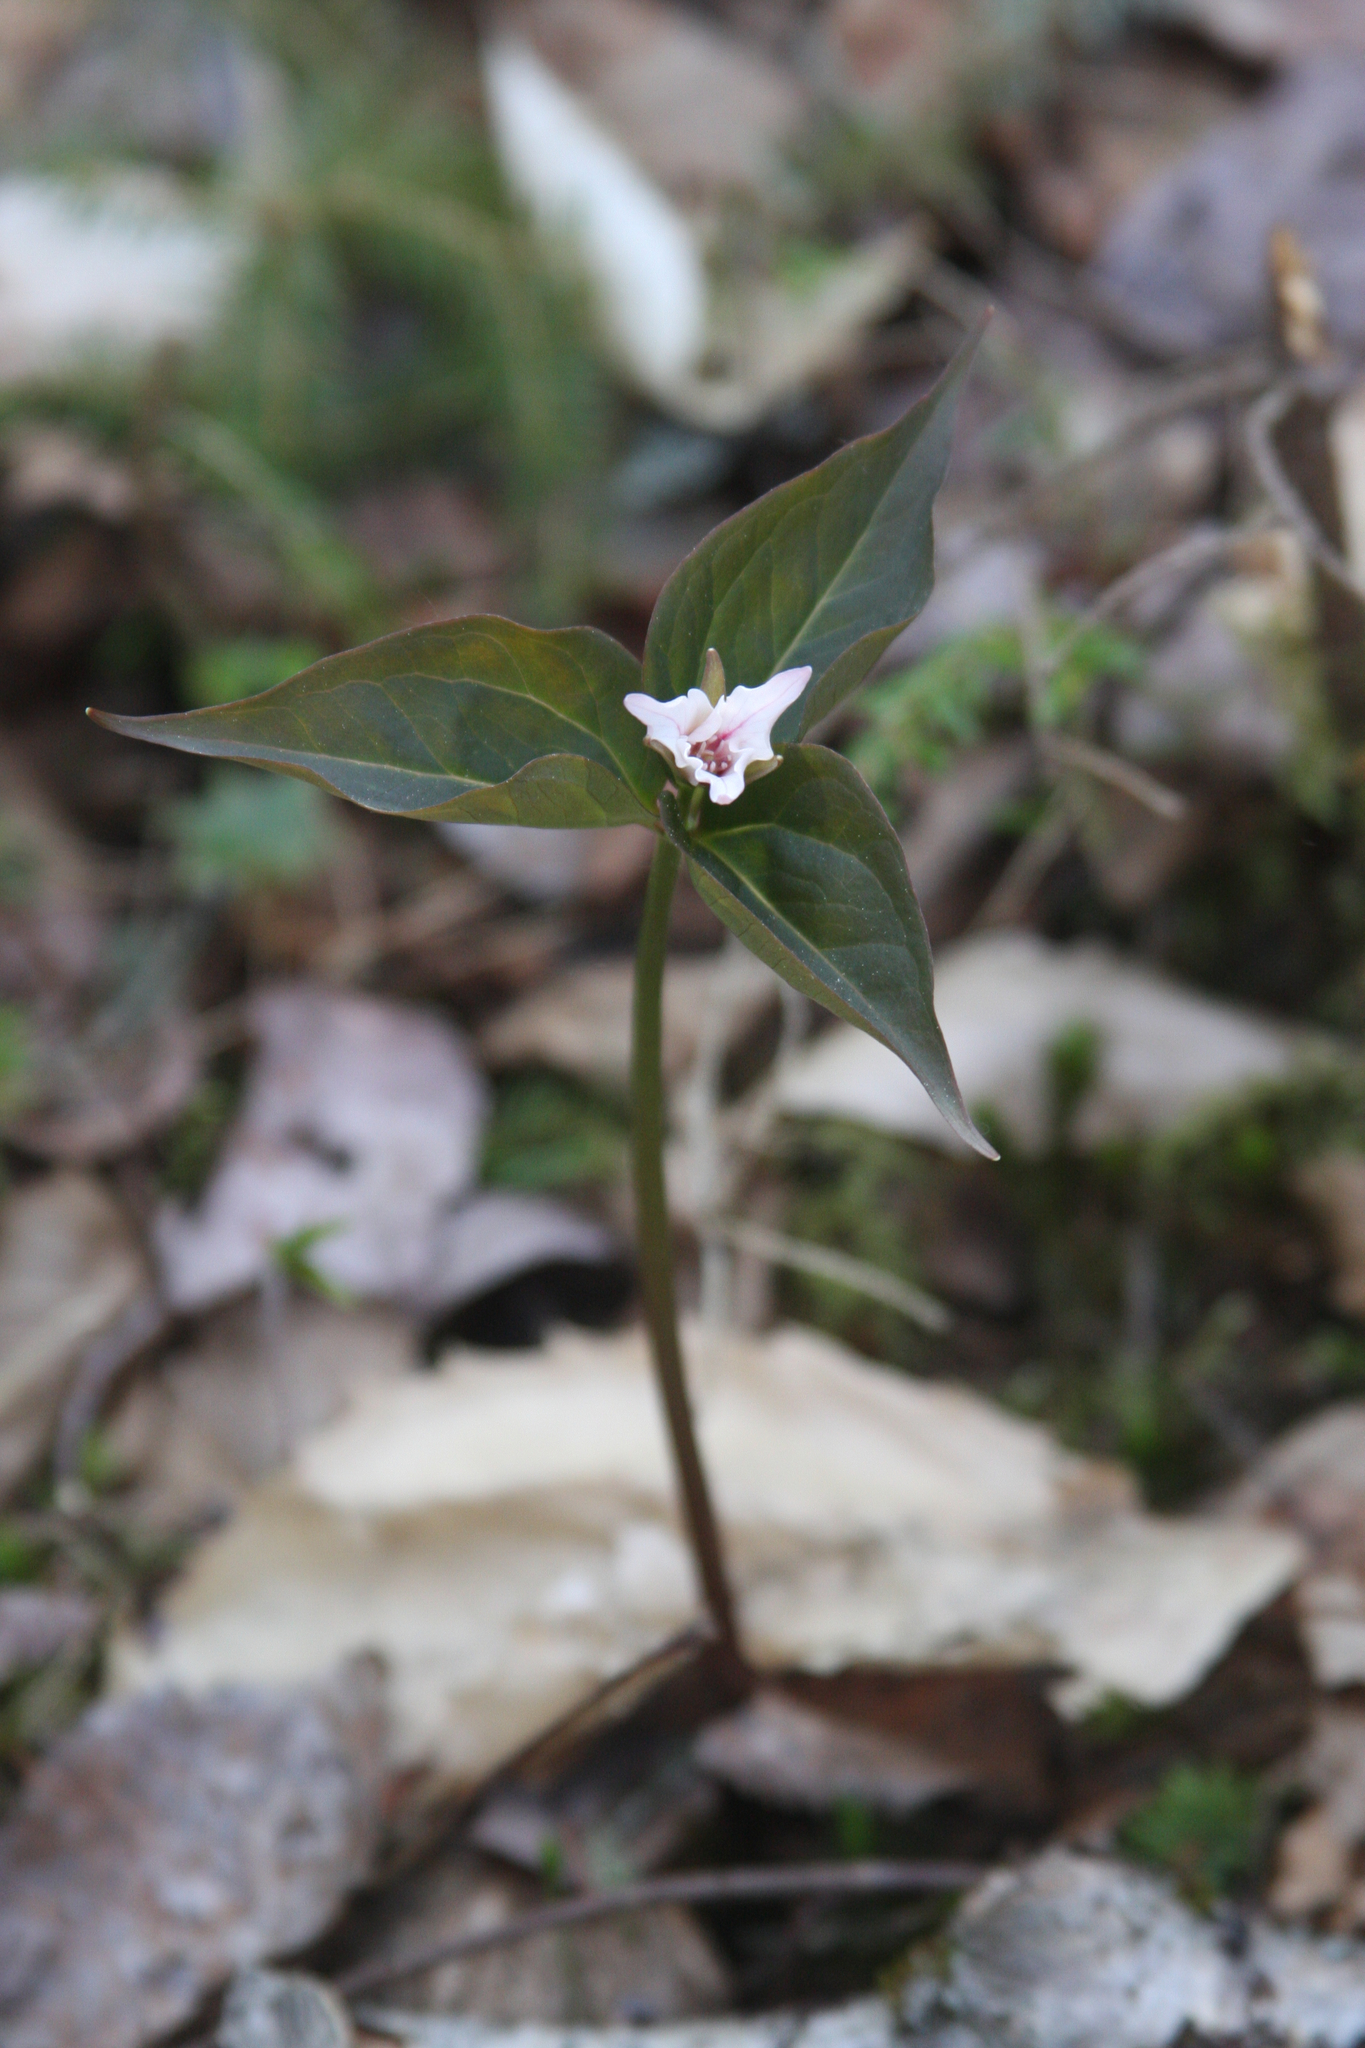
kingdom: Plantae
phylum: Tracheophyta
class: Liliopsida
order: Liliales
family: Melanthiaceae
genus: Trillium
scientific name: Trillium undulatum
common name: Paint trillium
